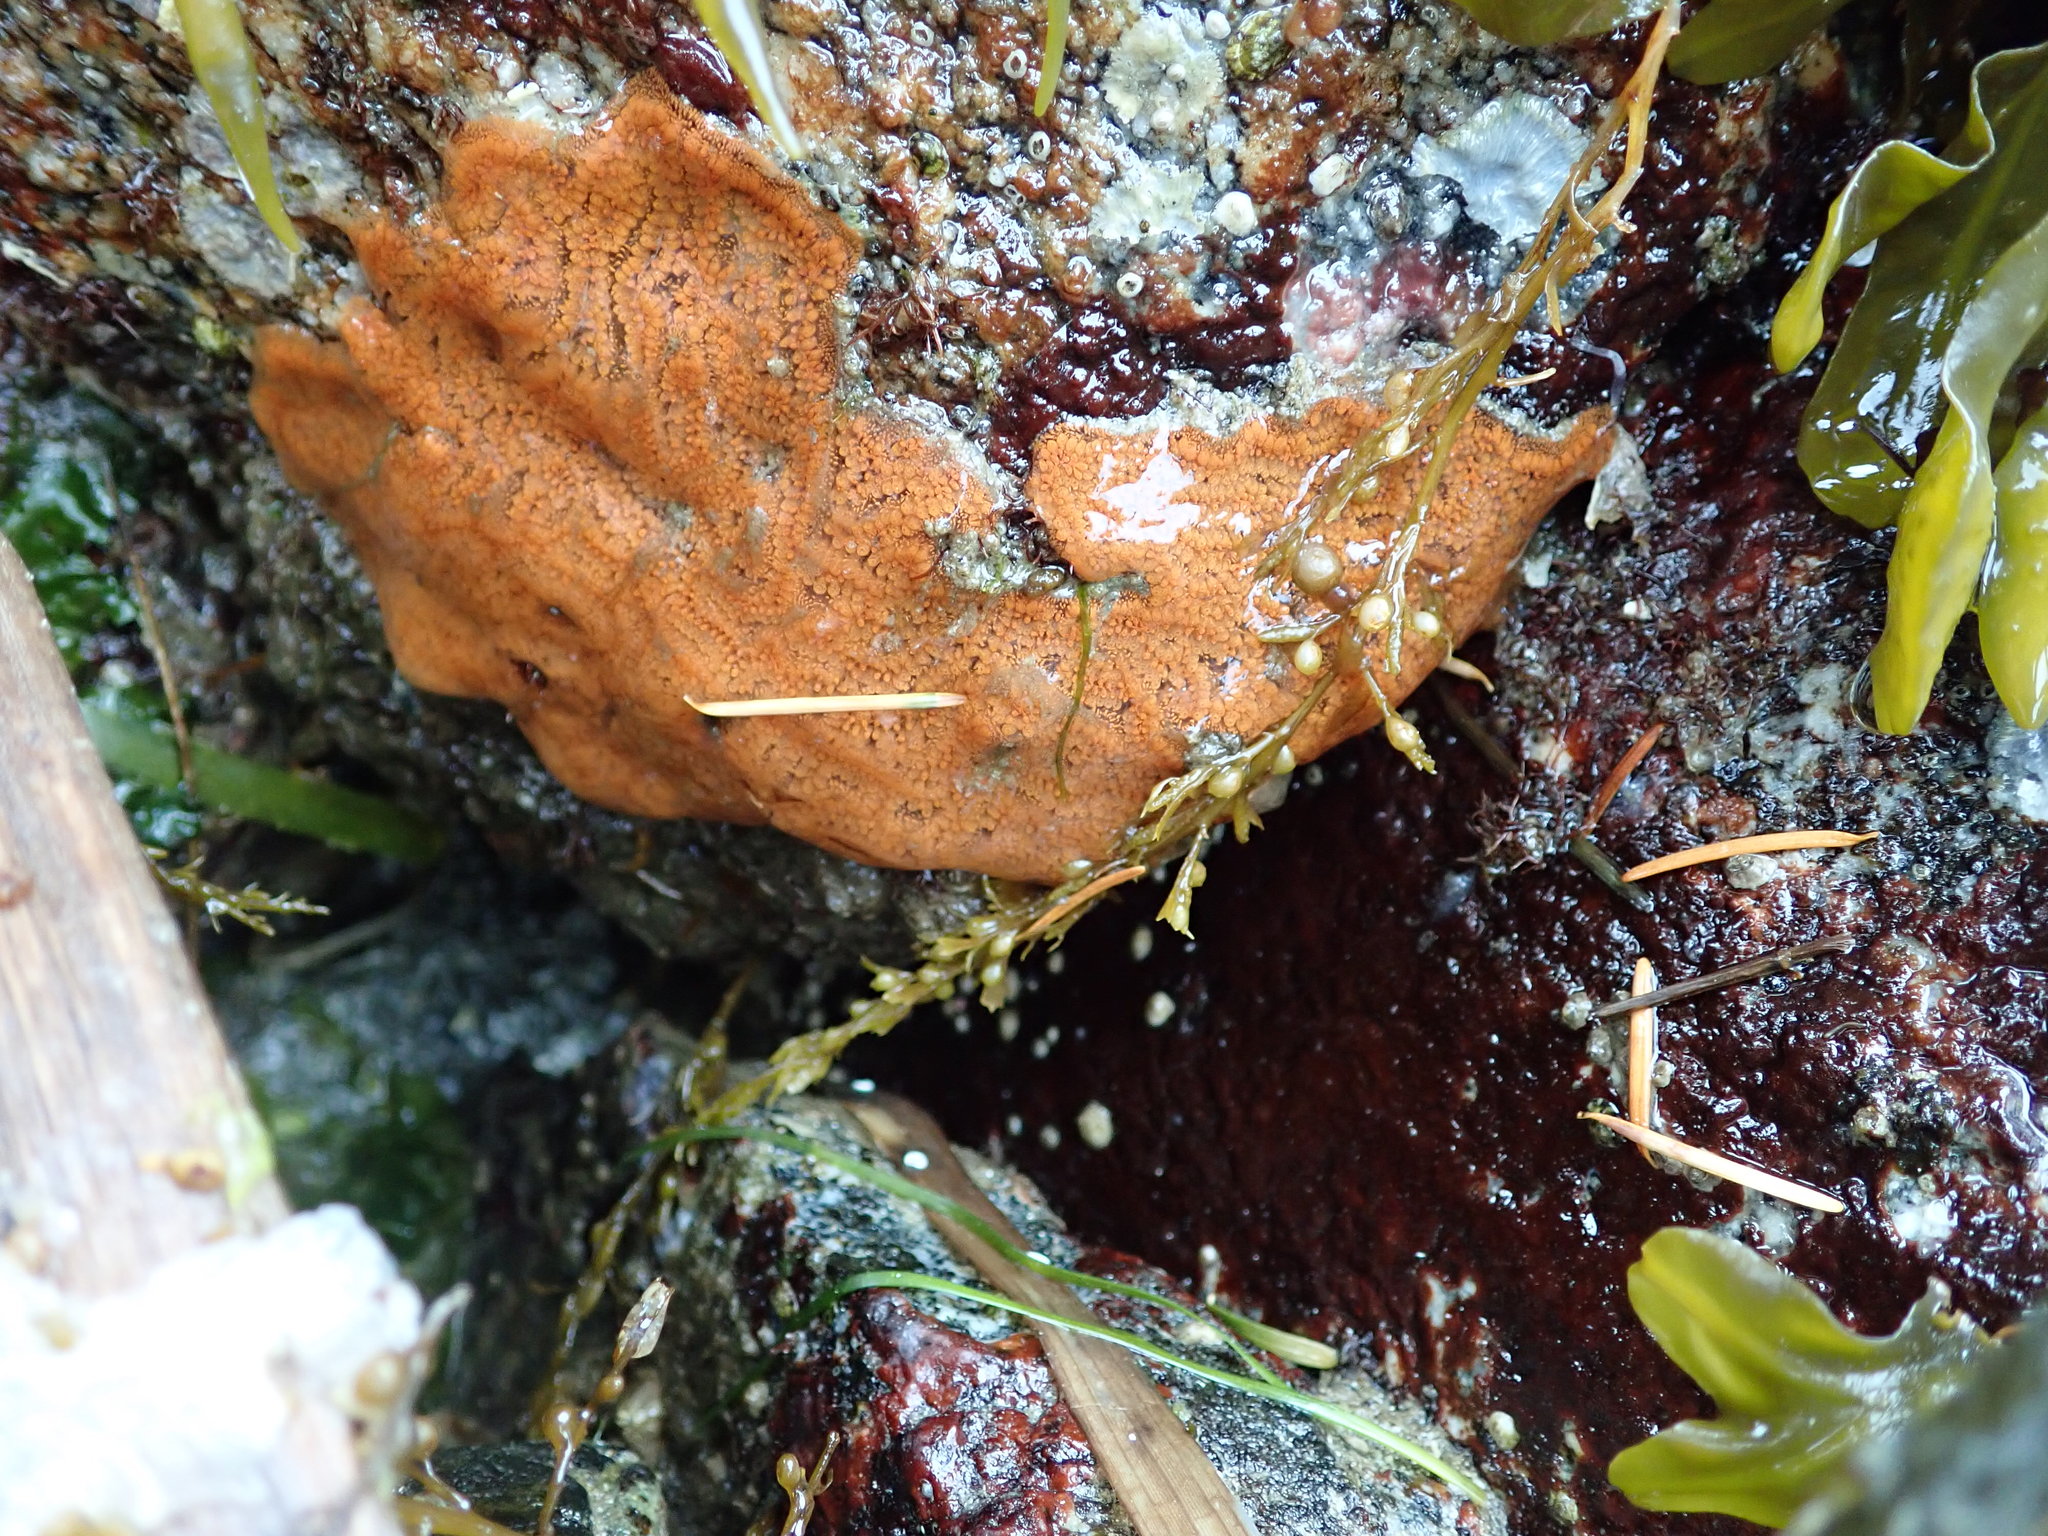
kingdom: Animalia
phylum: Chordata
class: Ascidiacea
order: Stolidobranchia
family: Styelidae
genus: Botrylloides
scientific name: Botrylloides violaceus
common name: Colonial sea squirt
